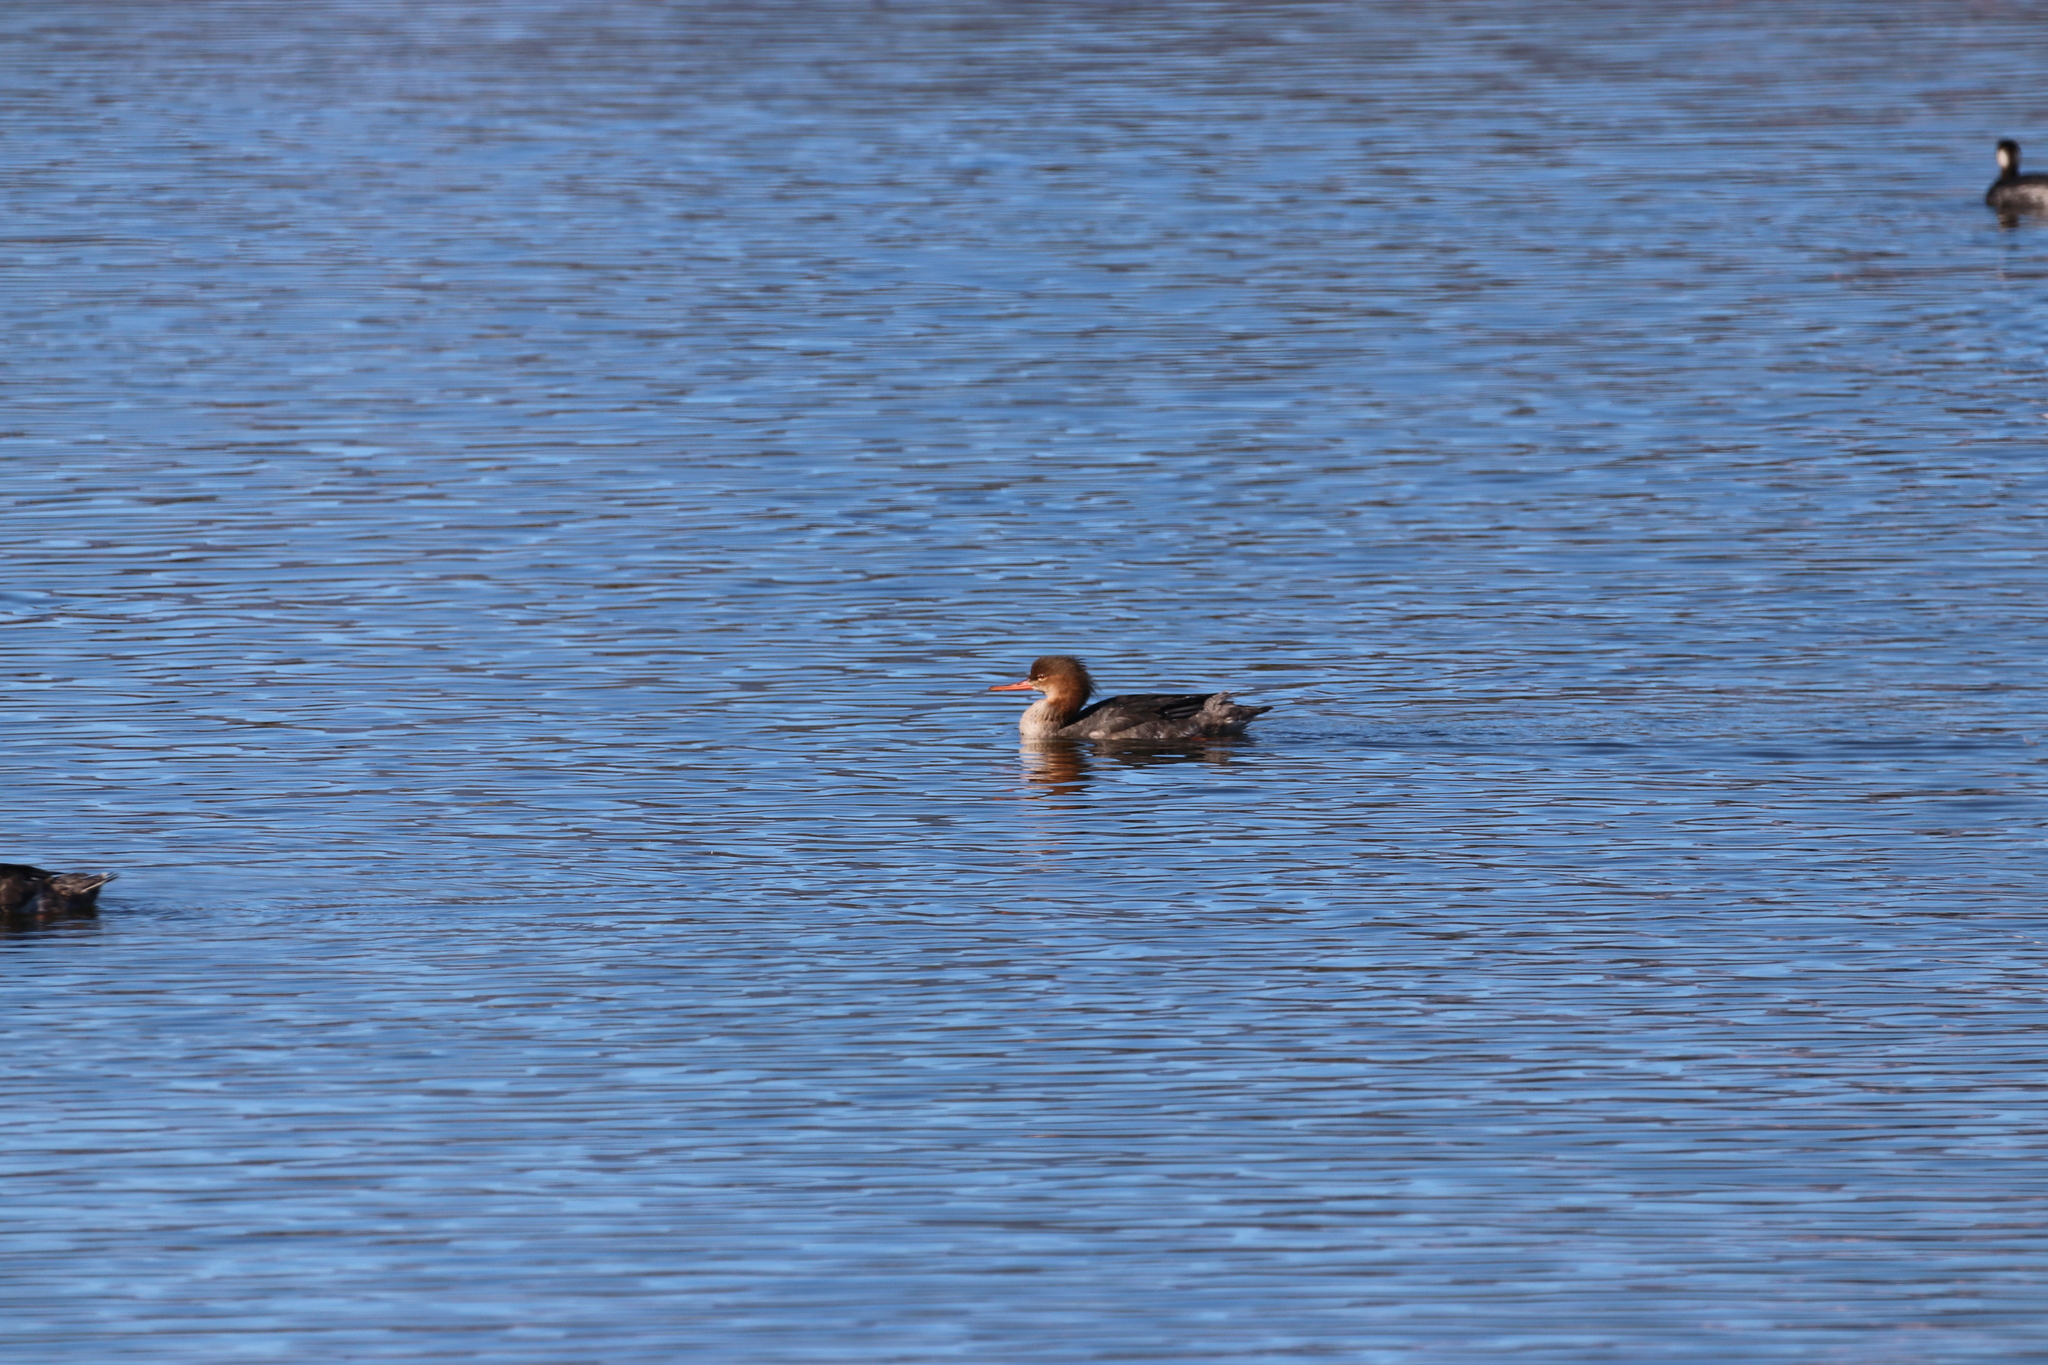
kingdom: Animalia
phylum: Chordata
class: Aves
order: Anseriformes
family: Anatidae
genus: Mergus
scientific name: Mergus serrator
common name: Red-breasted merganser
